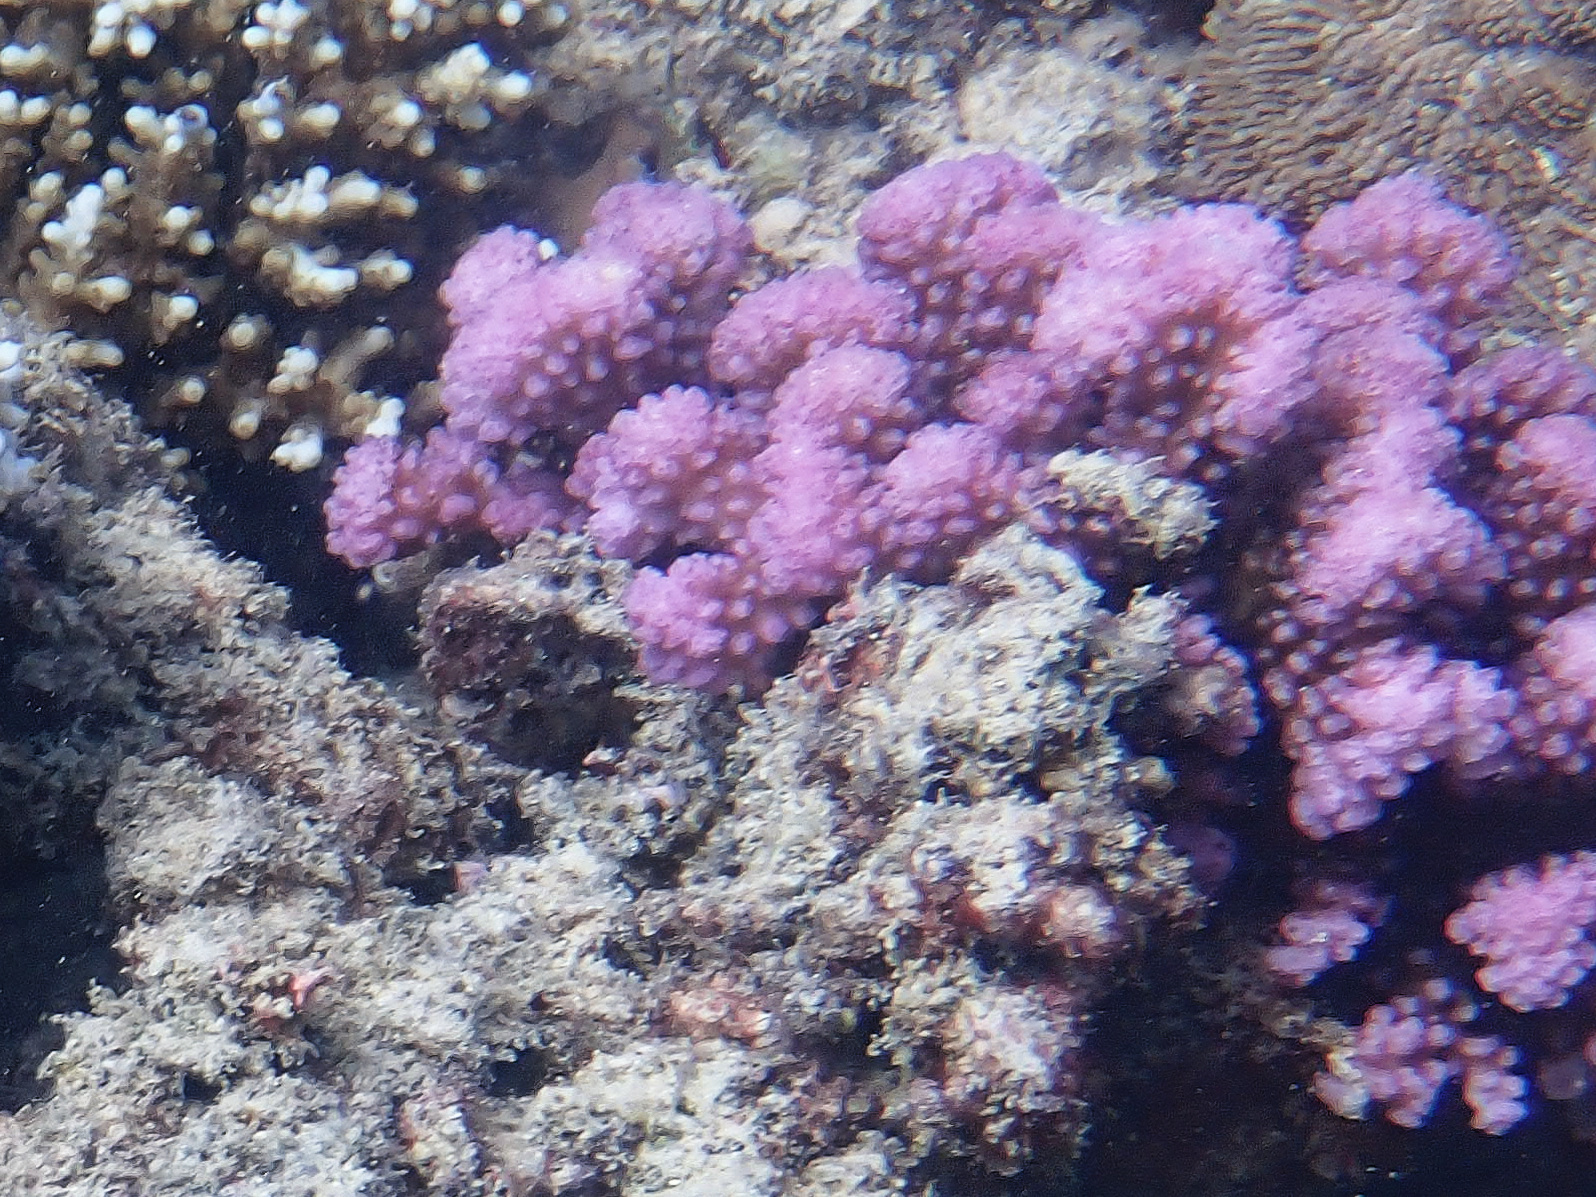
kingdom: Animalia
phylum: Cnidaria
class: Anthozoa
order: Scleractinia
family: Pocilloporidae
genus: Pocillopora
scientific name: Pocillopora verrucosa
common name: Cauliflower coral
